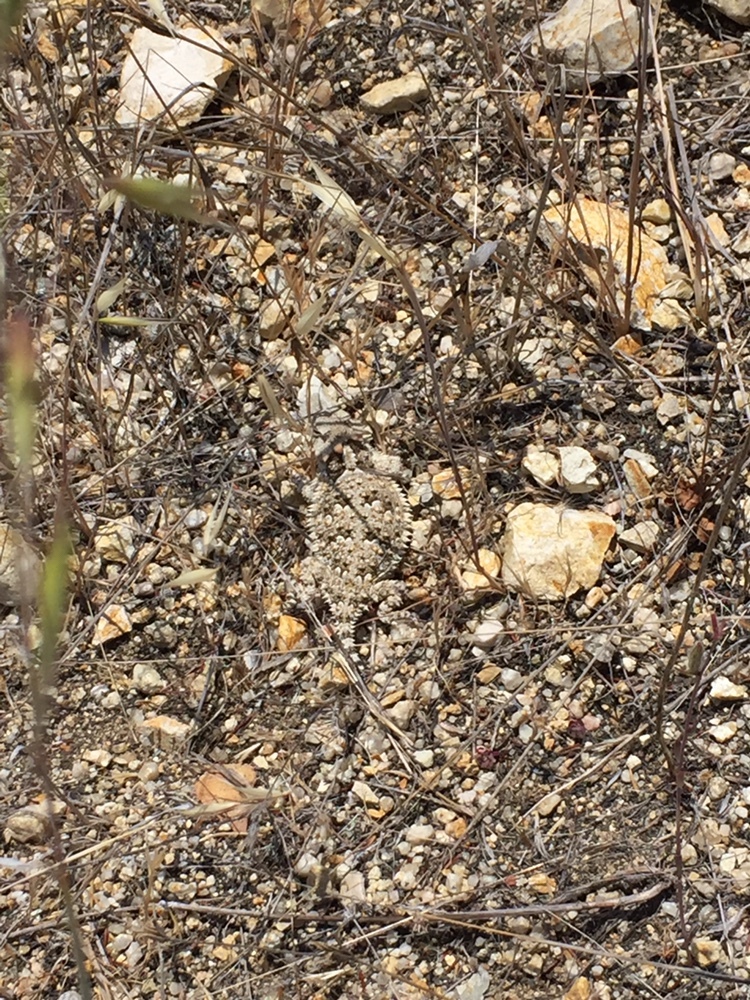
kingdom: Animalia
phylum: Chordata
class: Squamata
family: Phrynosomatidae
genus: Phrynosoma
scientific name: Phrynosoma blainvillii
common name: San diego horned lizard
